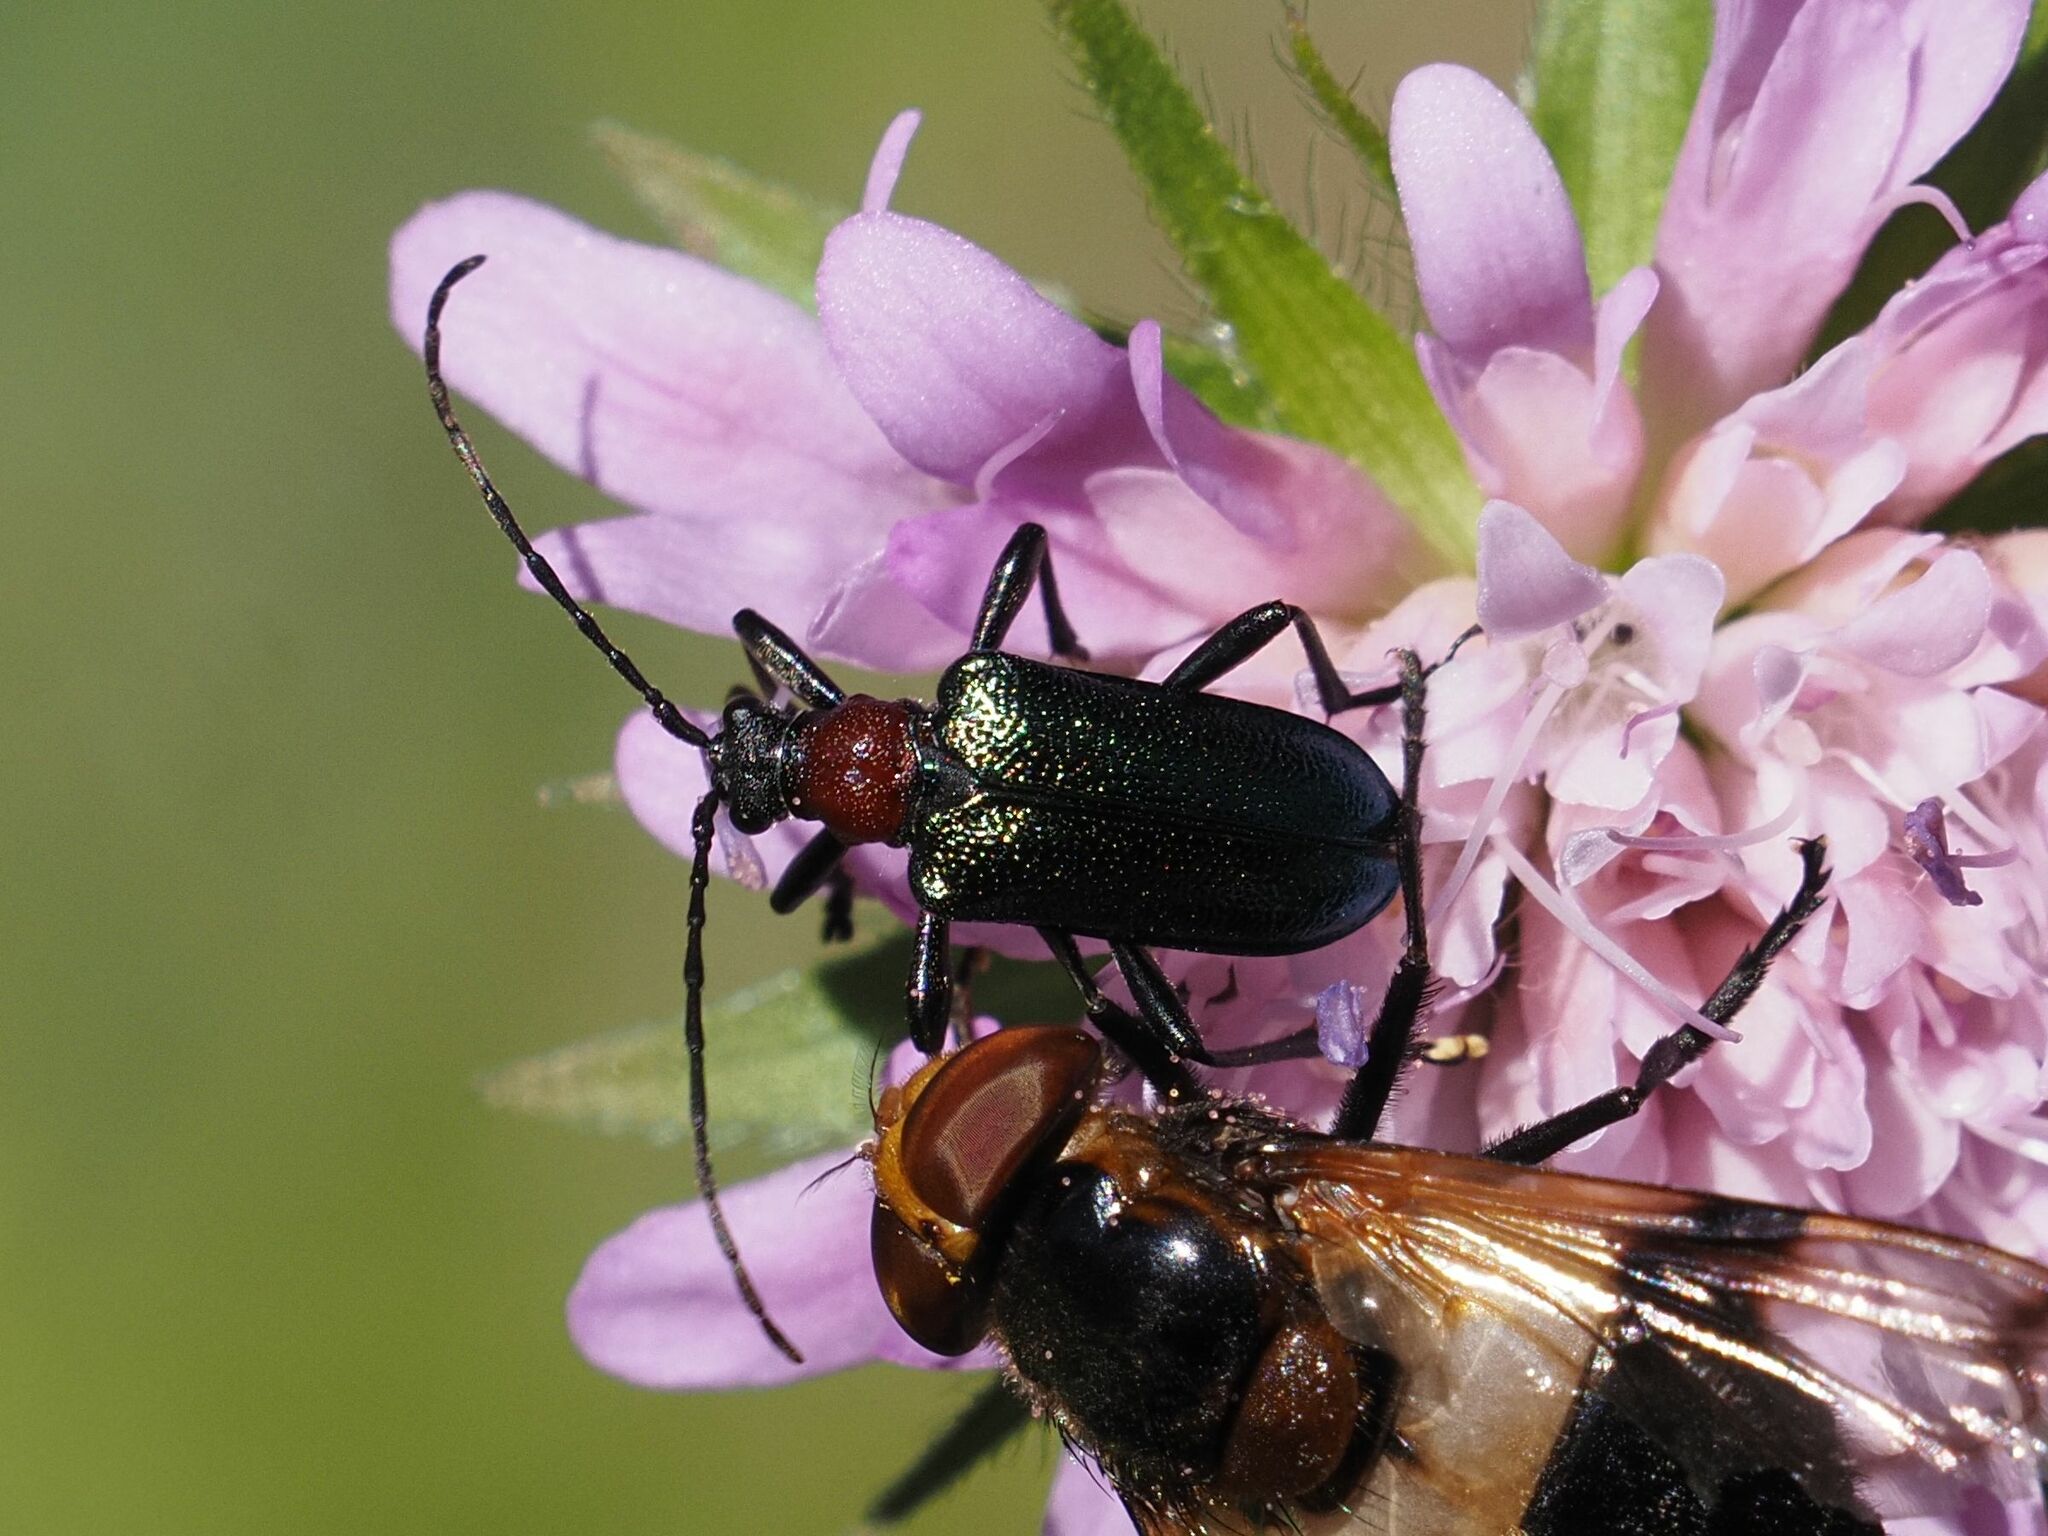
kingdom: Animalia
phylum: Arthropoda
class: Insecta
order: Coleoptera
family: Cerambycidae
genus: Gaurotes
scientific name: Gaurotes virginea
